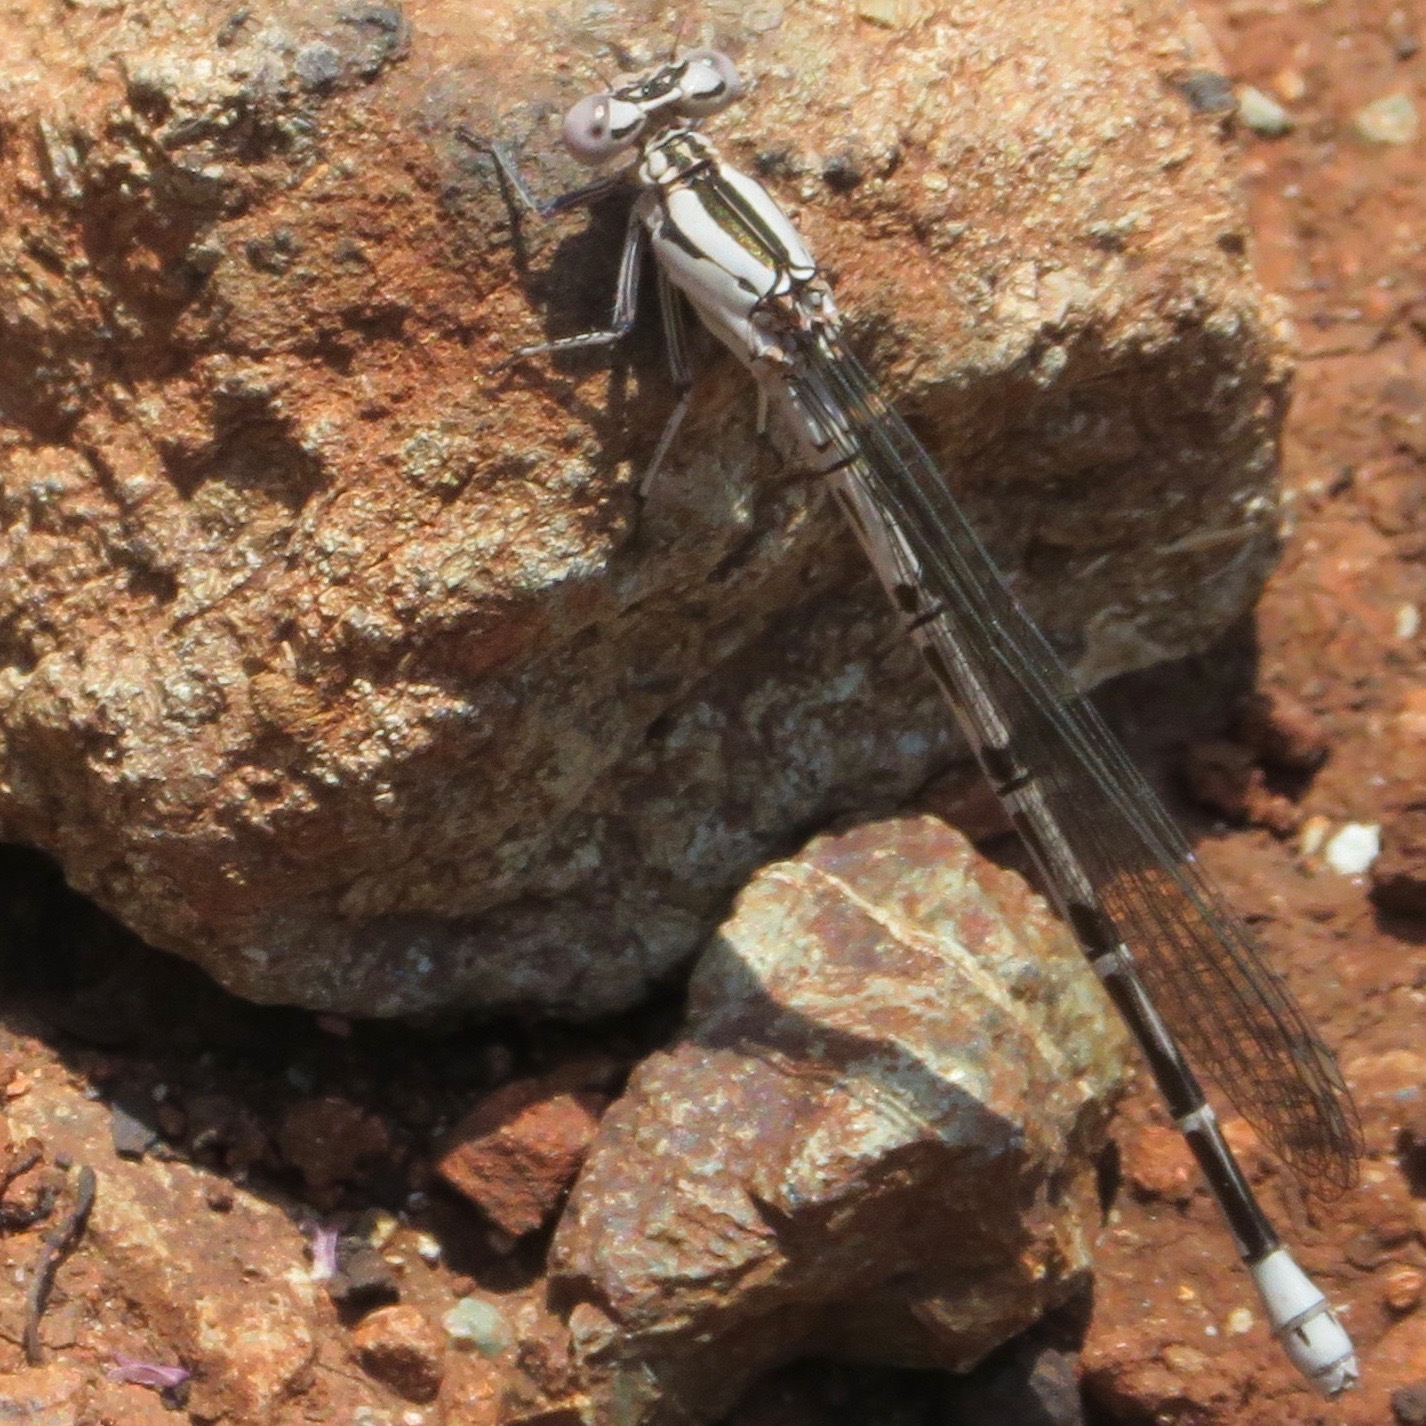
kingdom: Animalia
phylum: Arthropoda
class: Insecta
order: Odonata
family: Coenagrionidae
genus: Argia
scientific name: Argia vivida
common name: Vivid dancer
